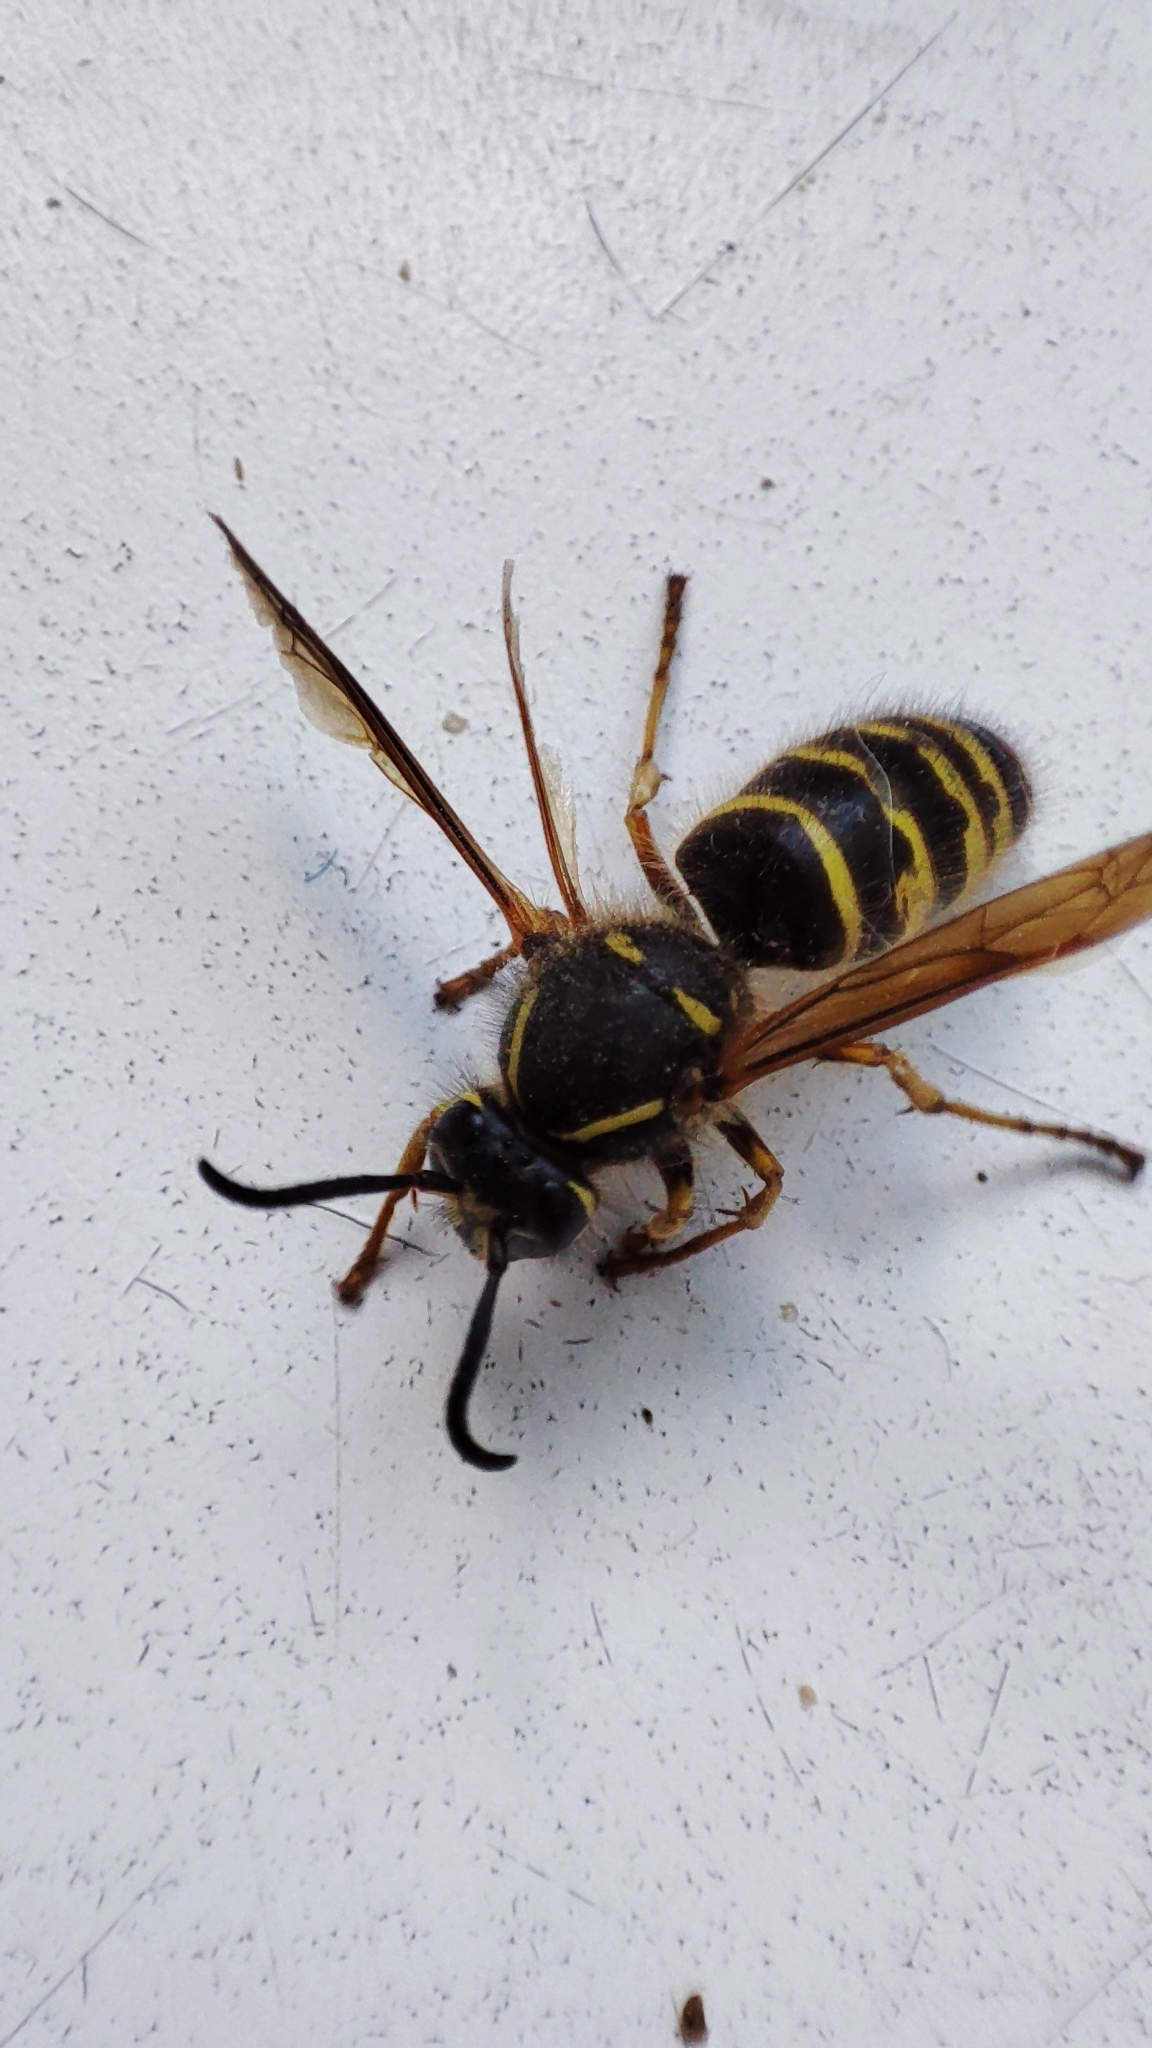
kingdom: Animalia
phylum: Arthropoda
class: Insecta
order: Hymenoptera
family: Vespidae
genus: Dolichovespula
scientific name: Dolichovespula saxonica
